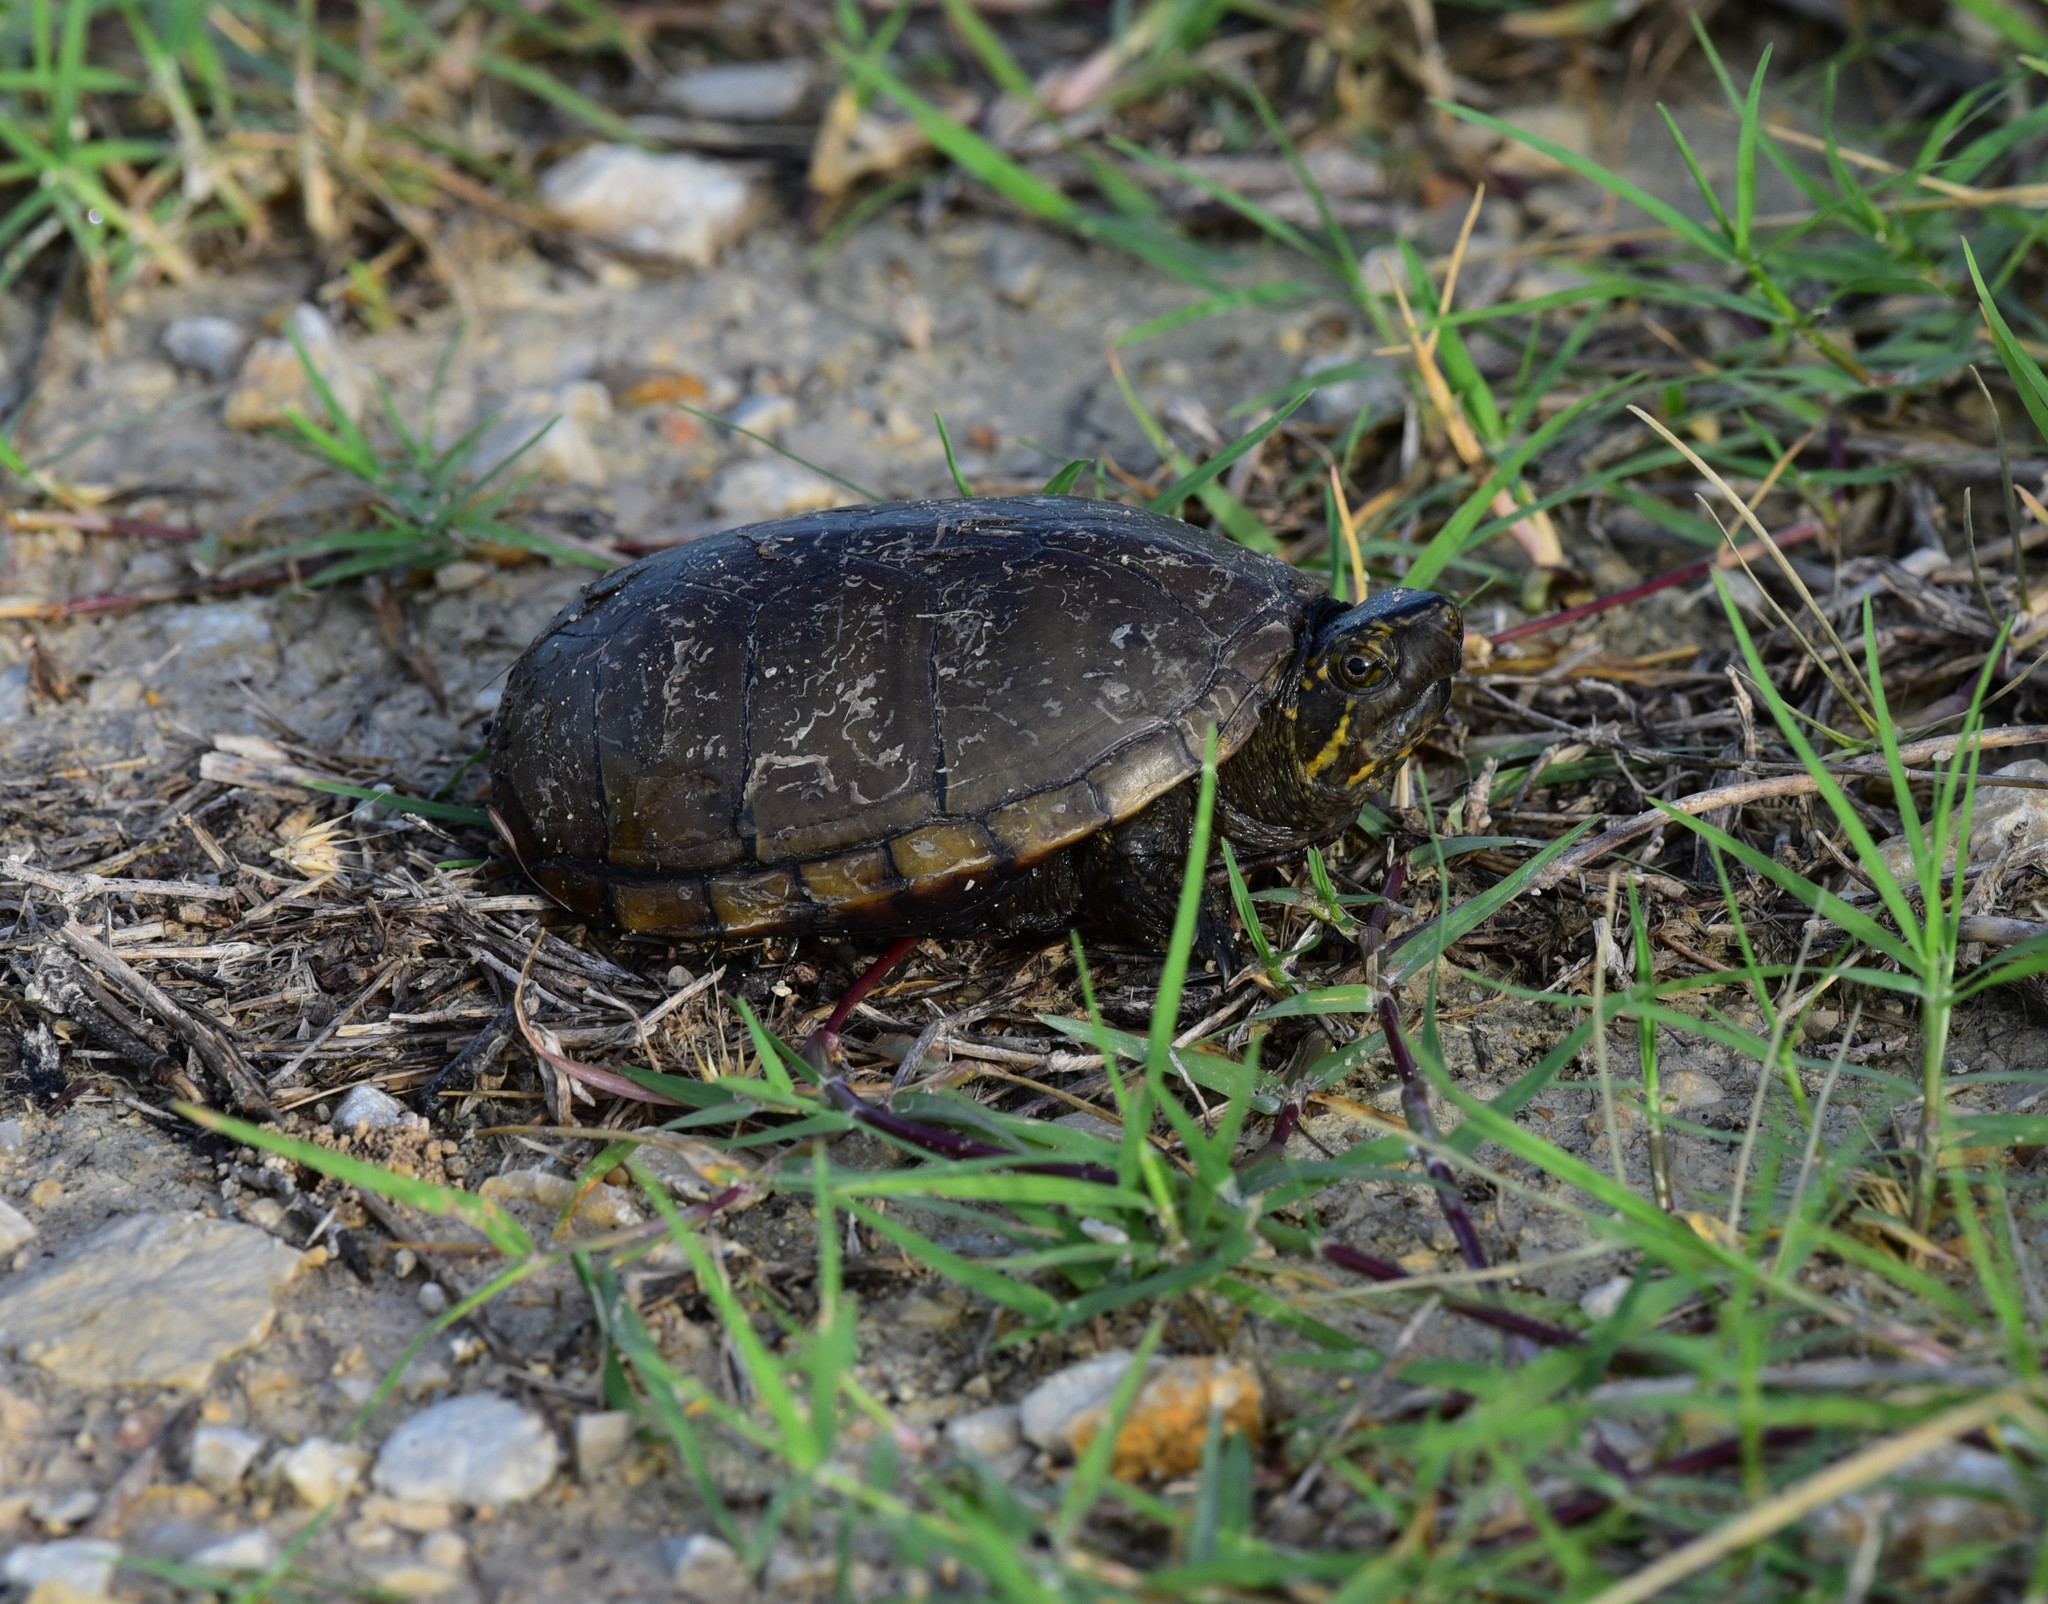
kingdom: Animalia
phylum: Chordata
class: Testudines
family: Kinosternidae
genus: Kinosternon
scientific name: Kinosternon subrubrum
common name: Eastern mud turtle
